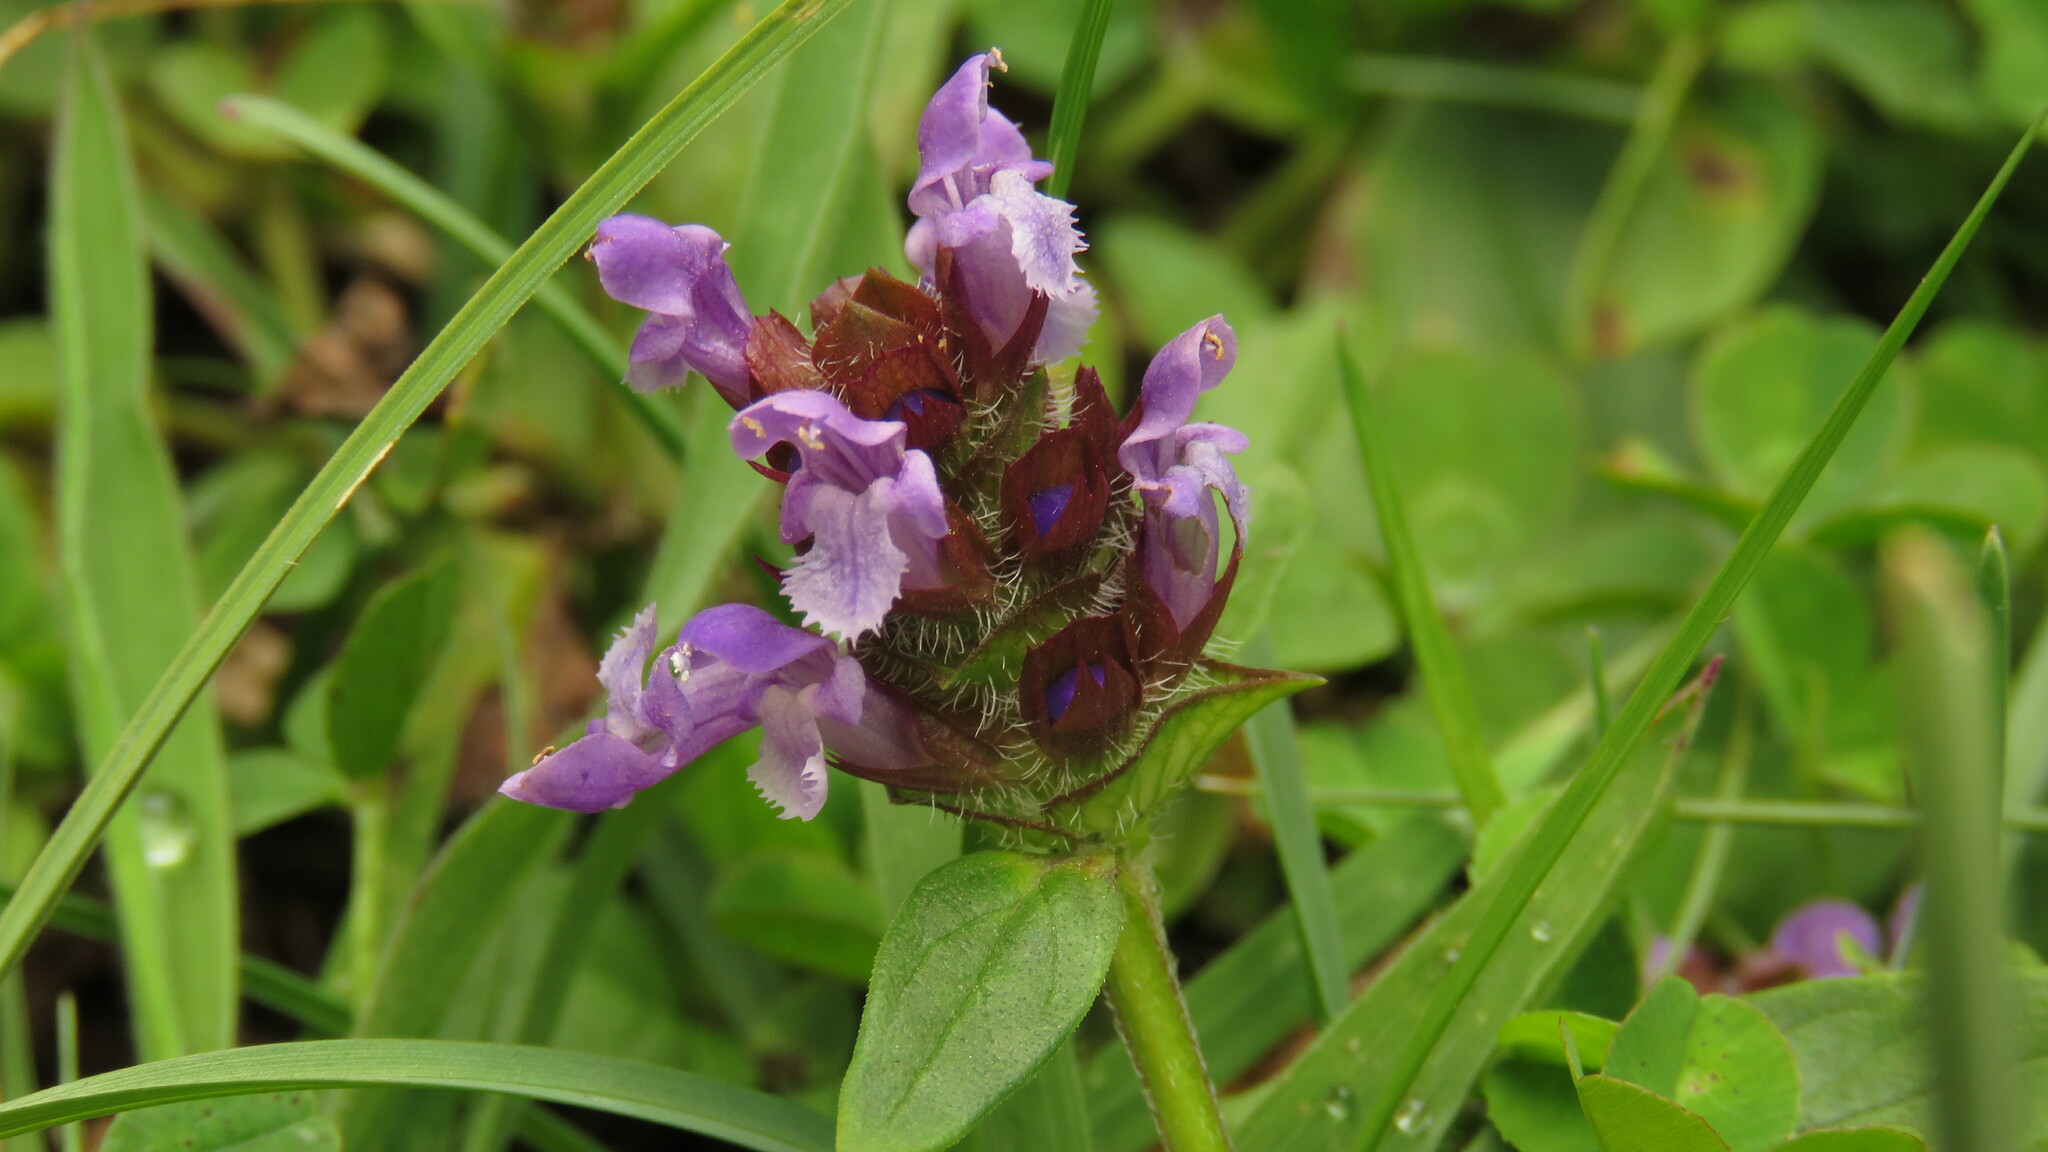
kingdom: Plantae
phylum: Tracheophyta
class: Magnoliopsida
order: Lamiales
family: Lamiaceae
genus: Prunella
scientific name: Prunella vulgaris
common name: Heal-all
